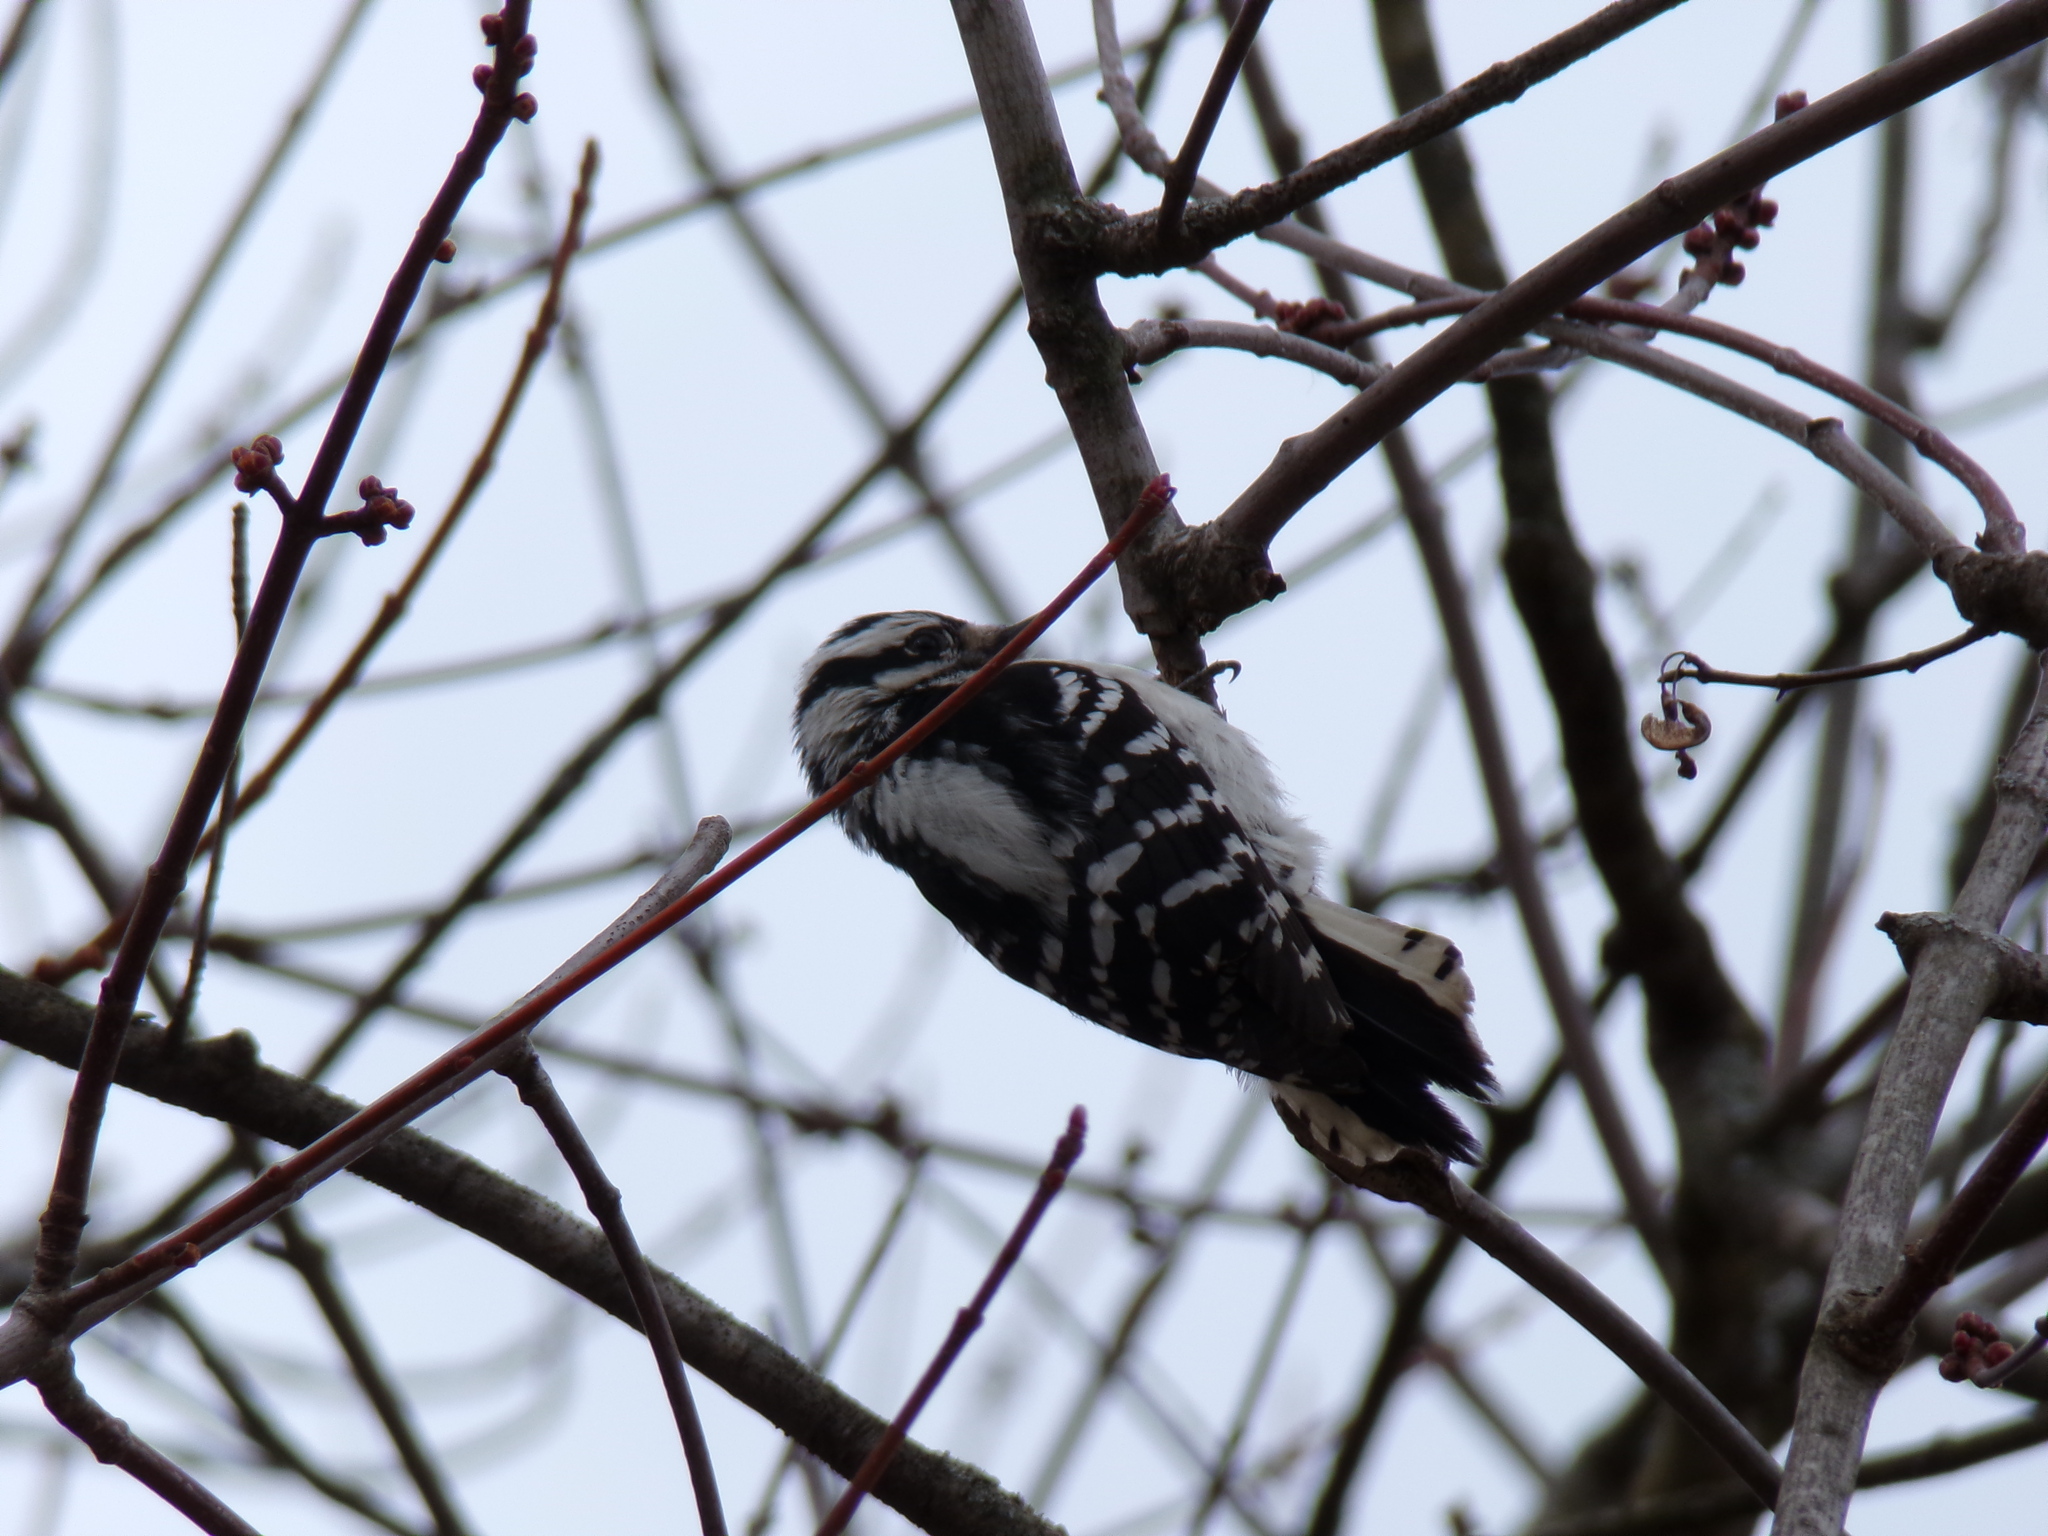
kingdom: Animalia
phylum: Chordata
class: Aves
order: Piciformes
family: Picidae
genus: Dryobates
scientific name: Dryobates pubescens
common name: Downy woodpecker
